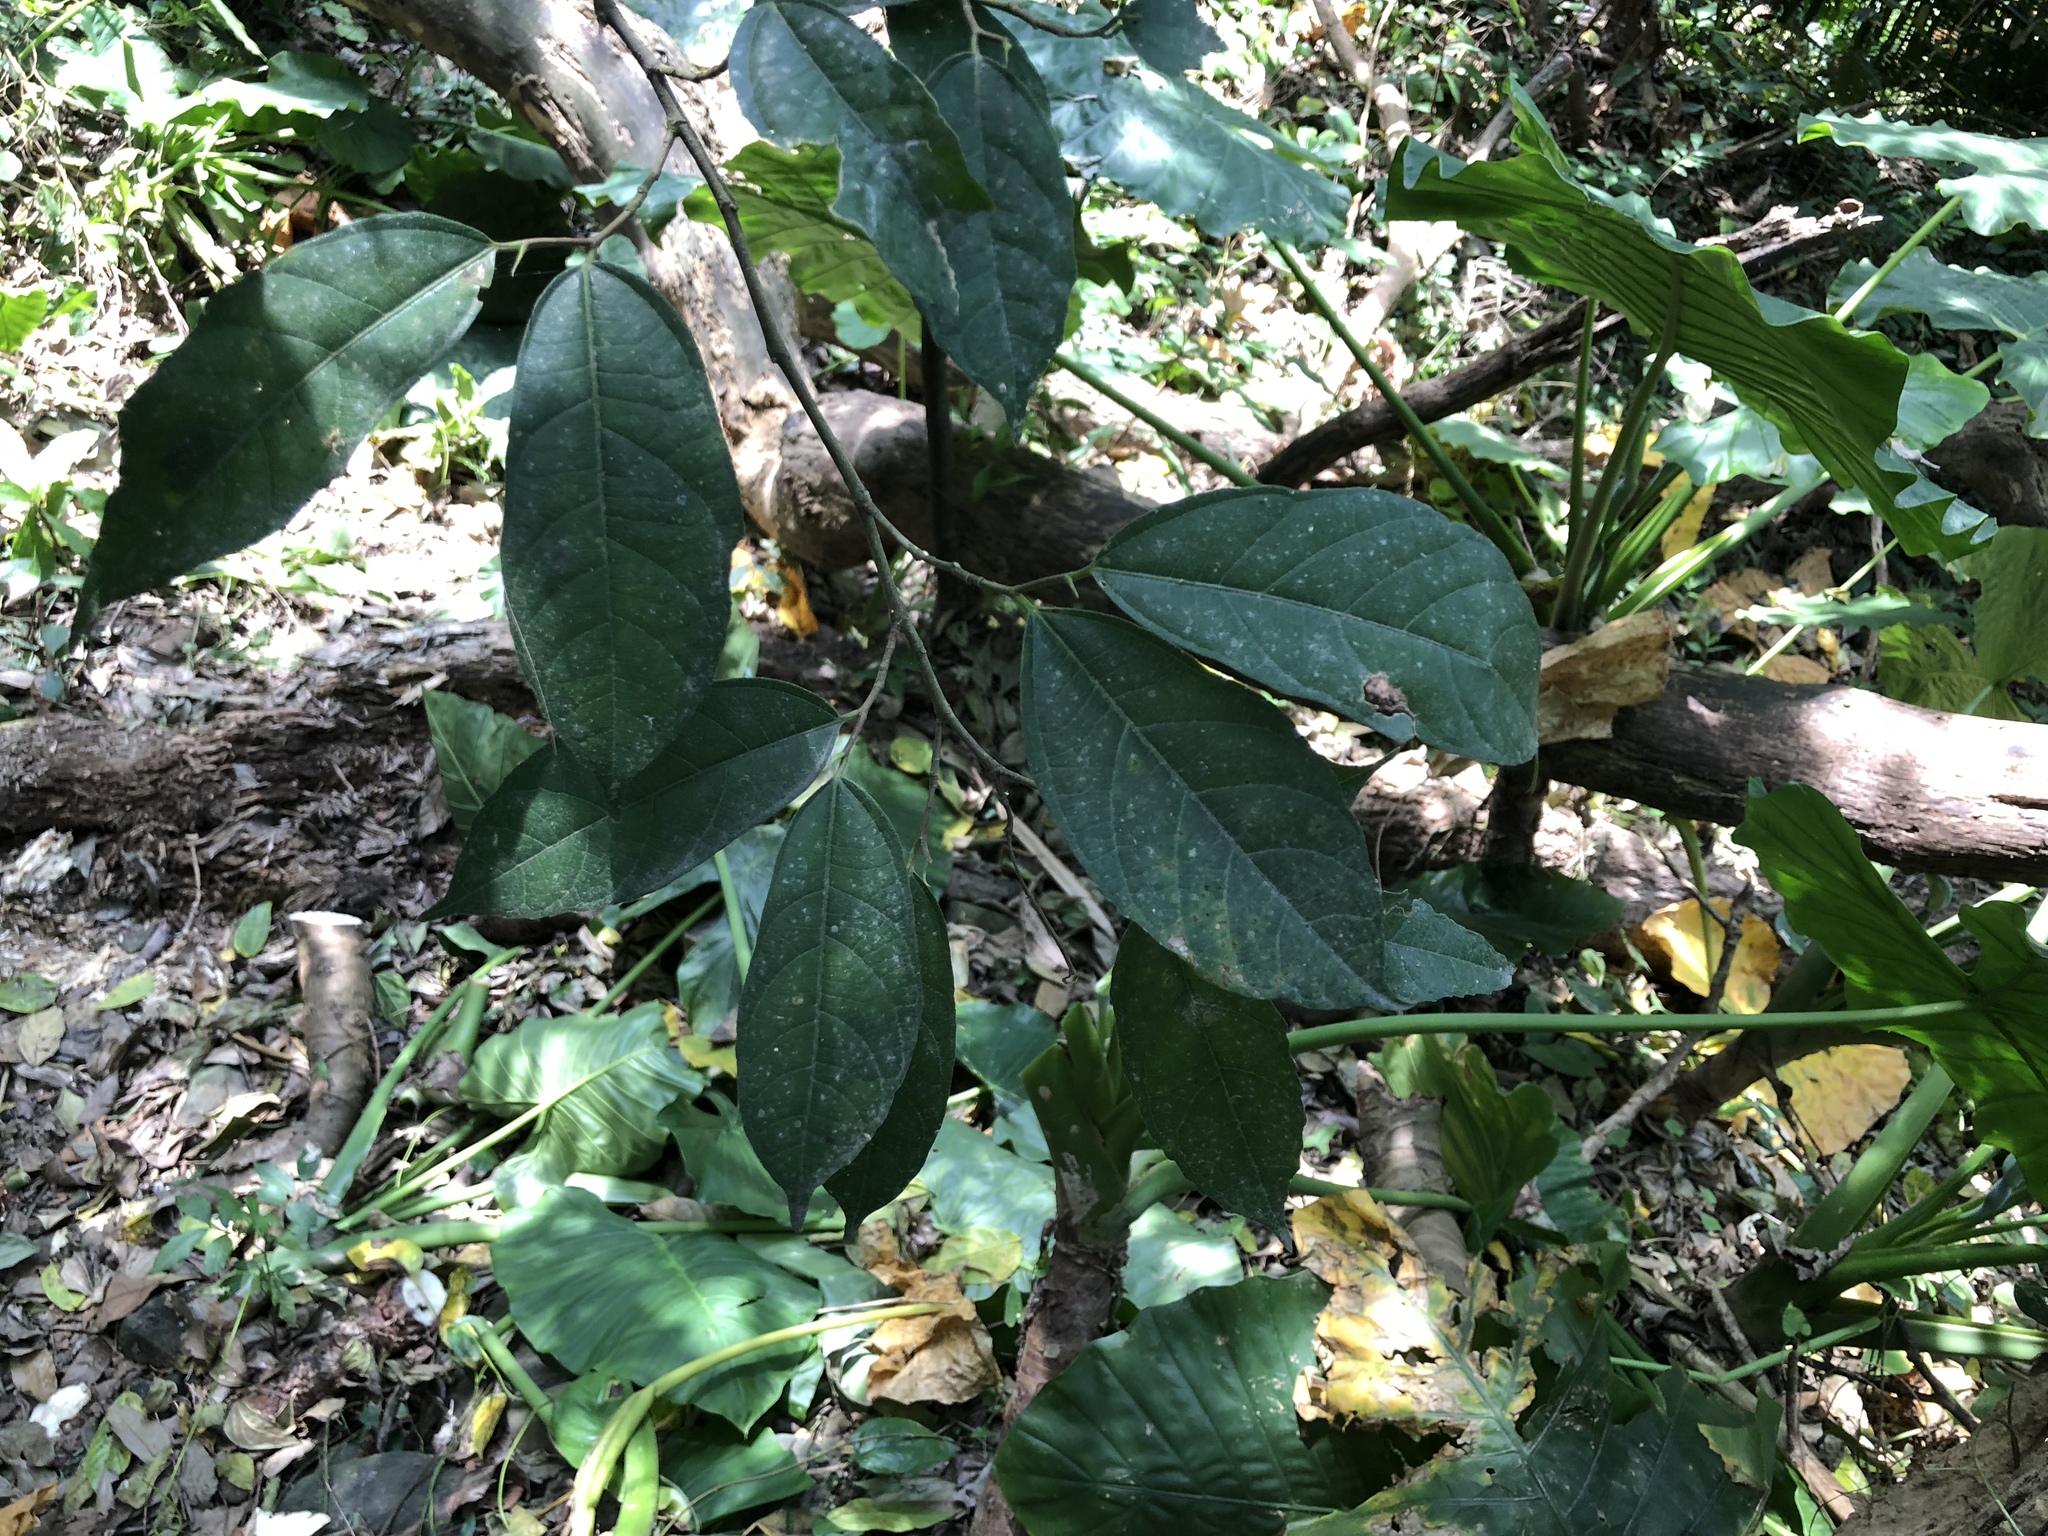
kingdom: Plantae
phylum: Tracheophyta
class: Magnoliopsida
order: Rosales
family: Moraceae
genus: Ficus
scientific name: Ficus ampelos
